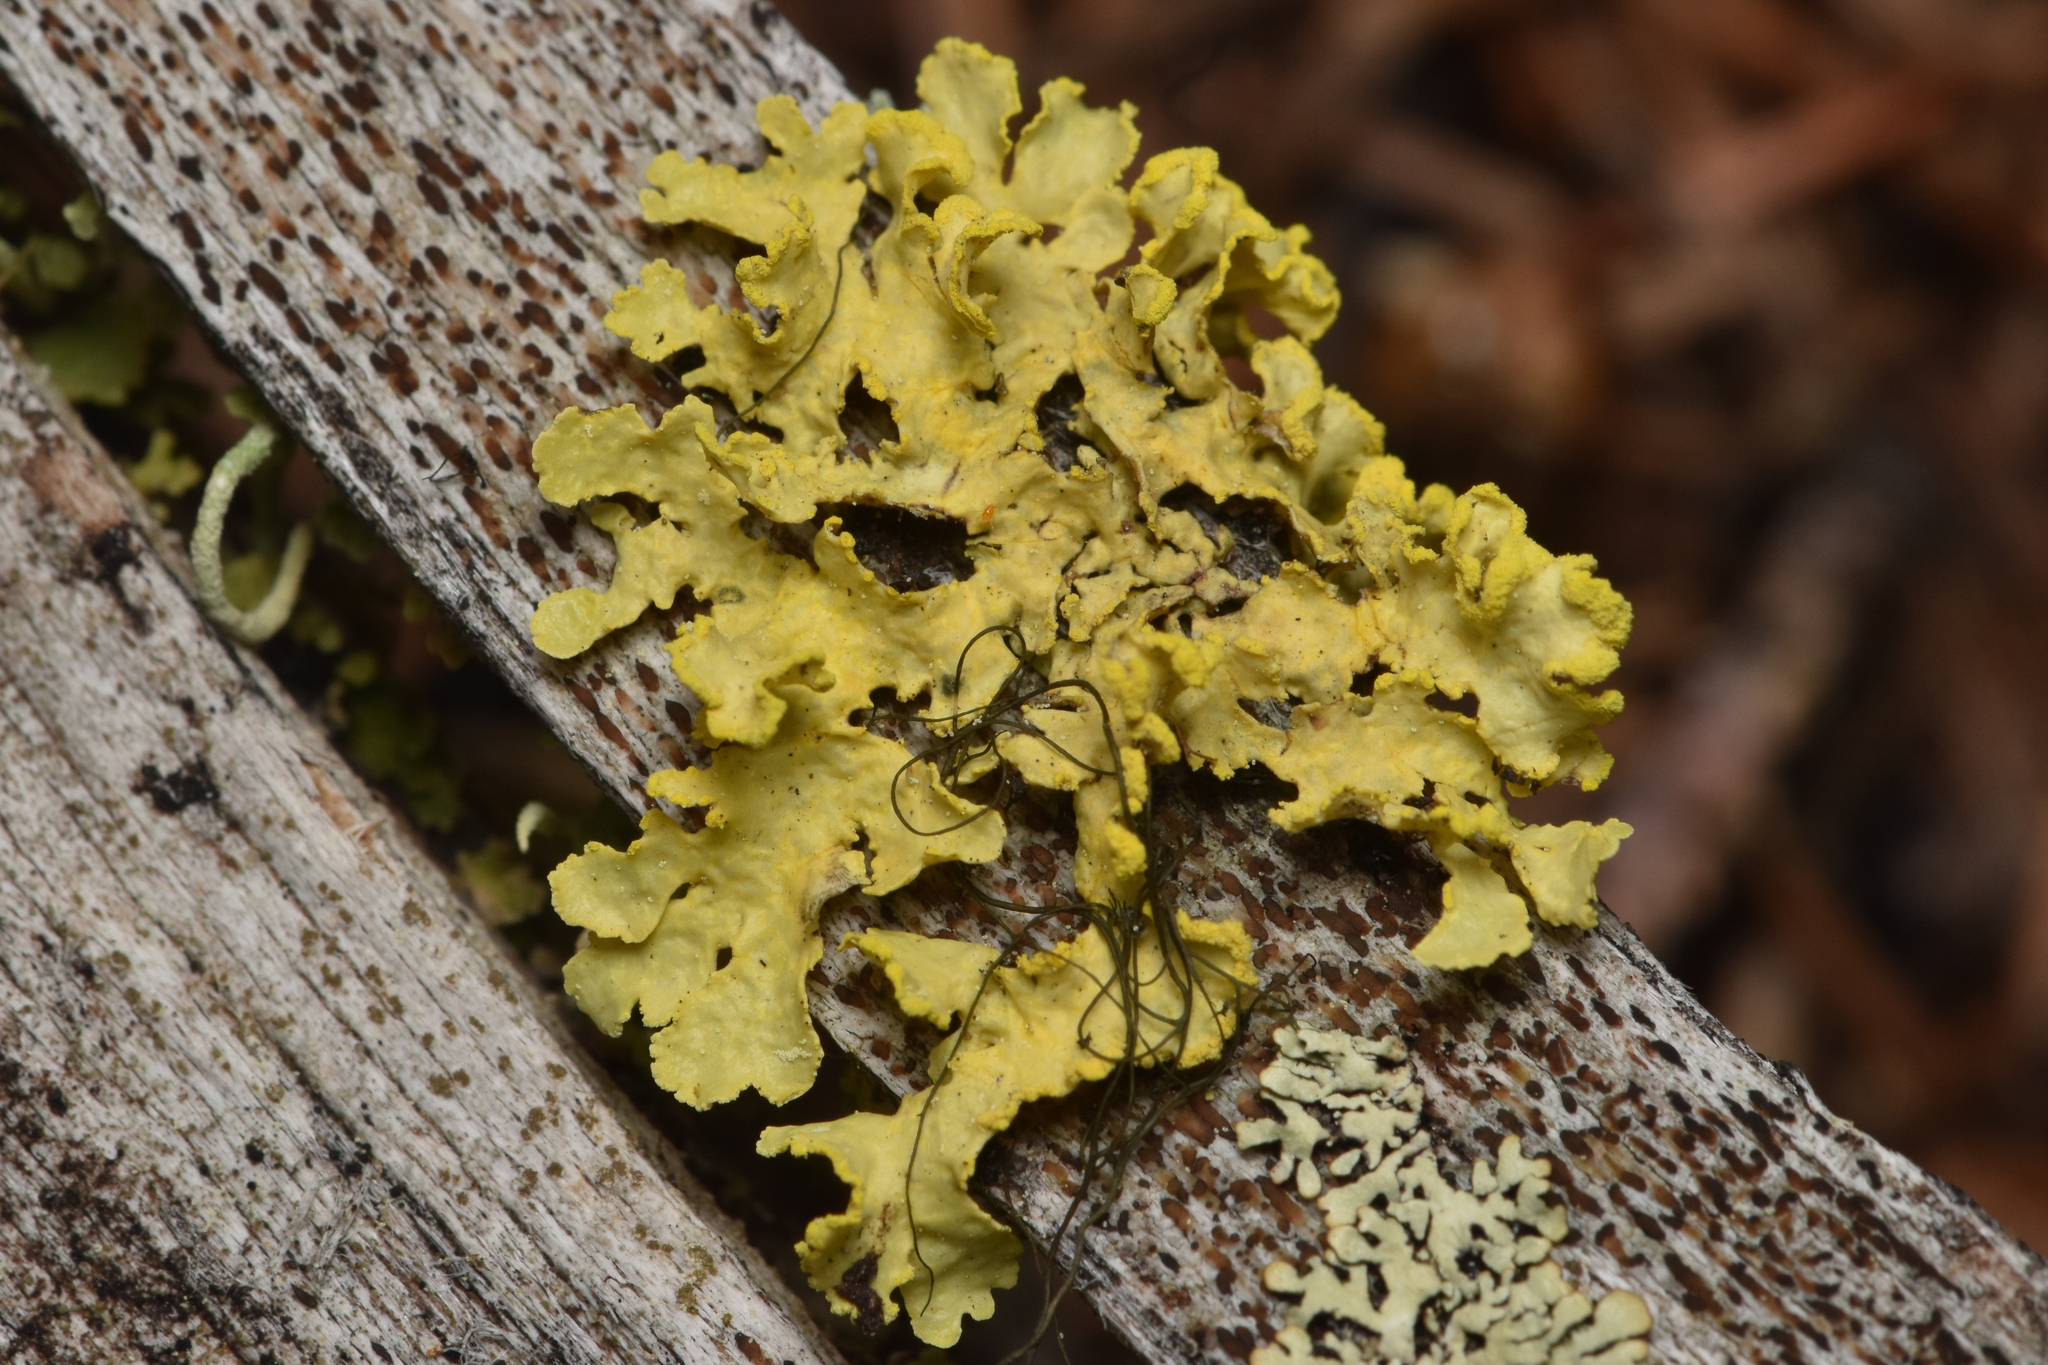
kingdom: Fungi
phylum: Ascomycota
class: Lecanoromycetes
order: Lecanorales
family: Parmeliaceae
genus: Vulpicida
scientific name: Vulpicida pinastri
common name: Powdered sunshine lichen
